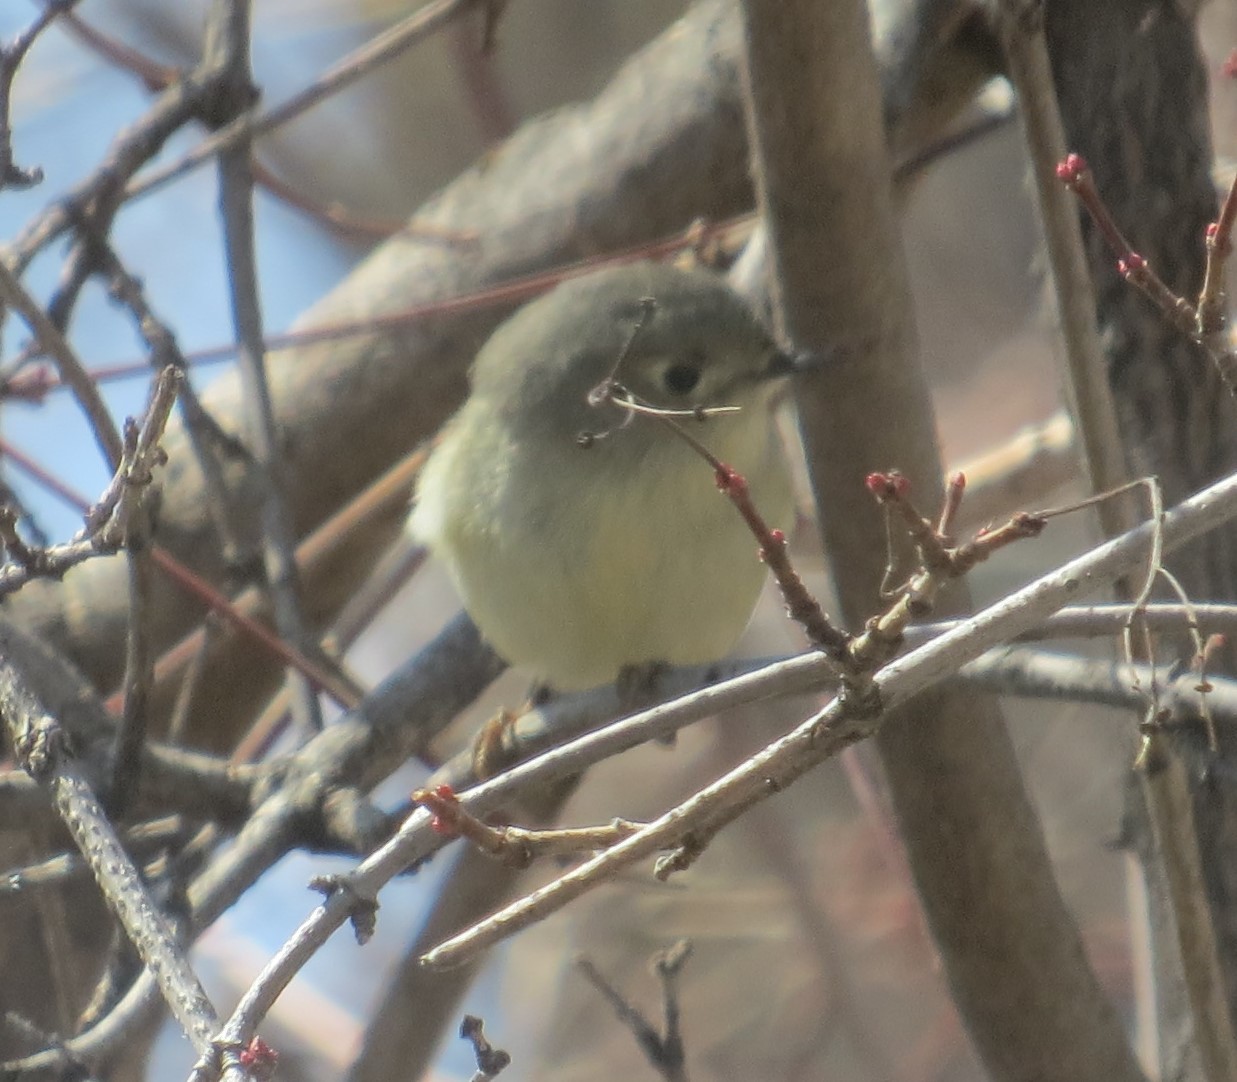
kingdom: Animalia
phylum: Chordata
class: Aves
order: Passeriformes
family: Regulidae
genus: Regulus
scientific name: Regulus calendula
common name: Ruby-crowned kinglet
